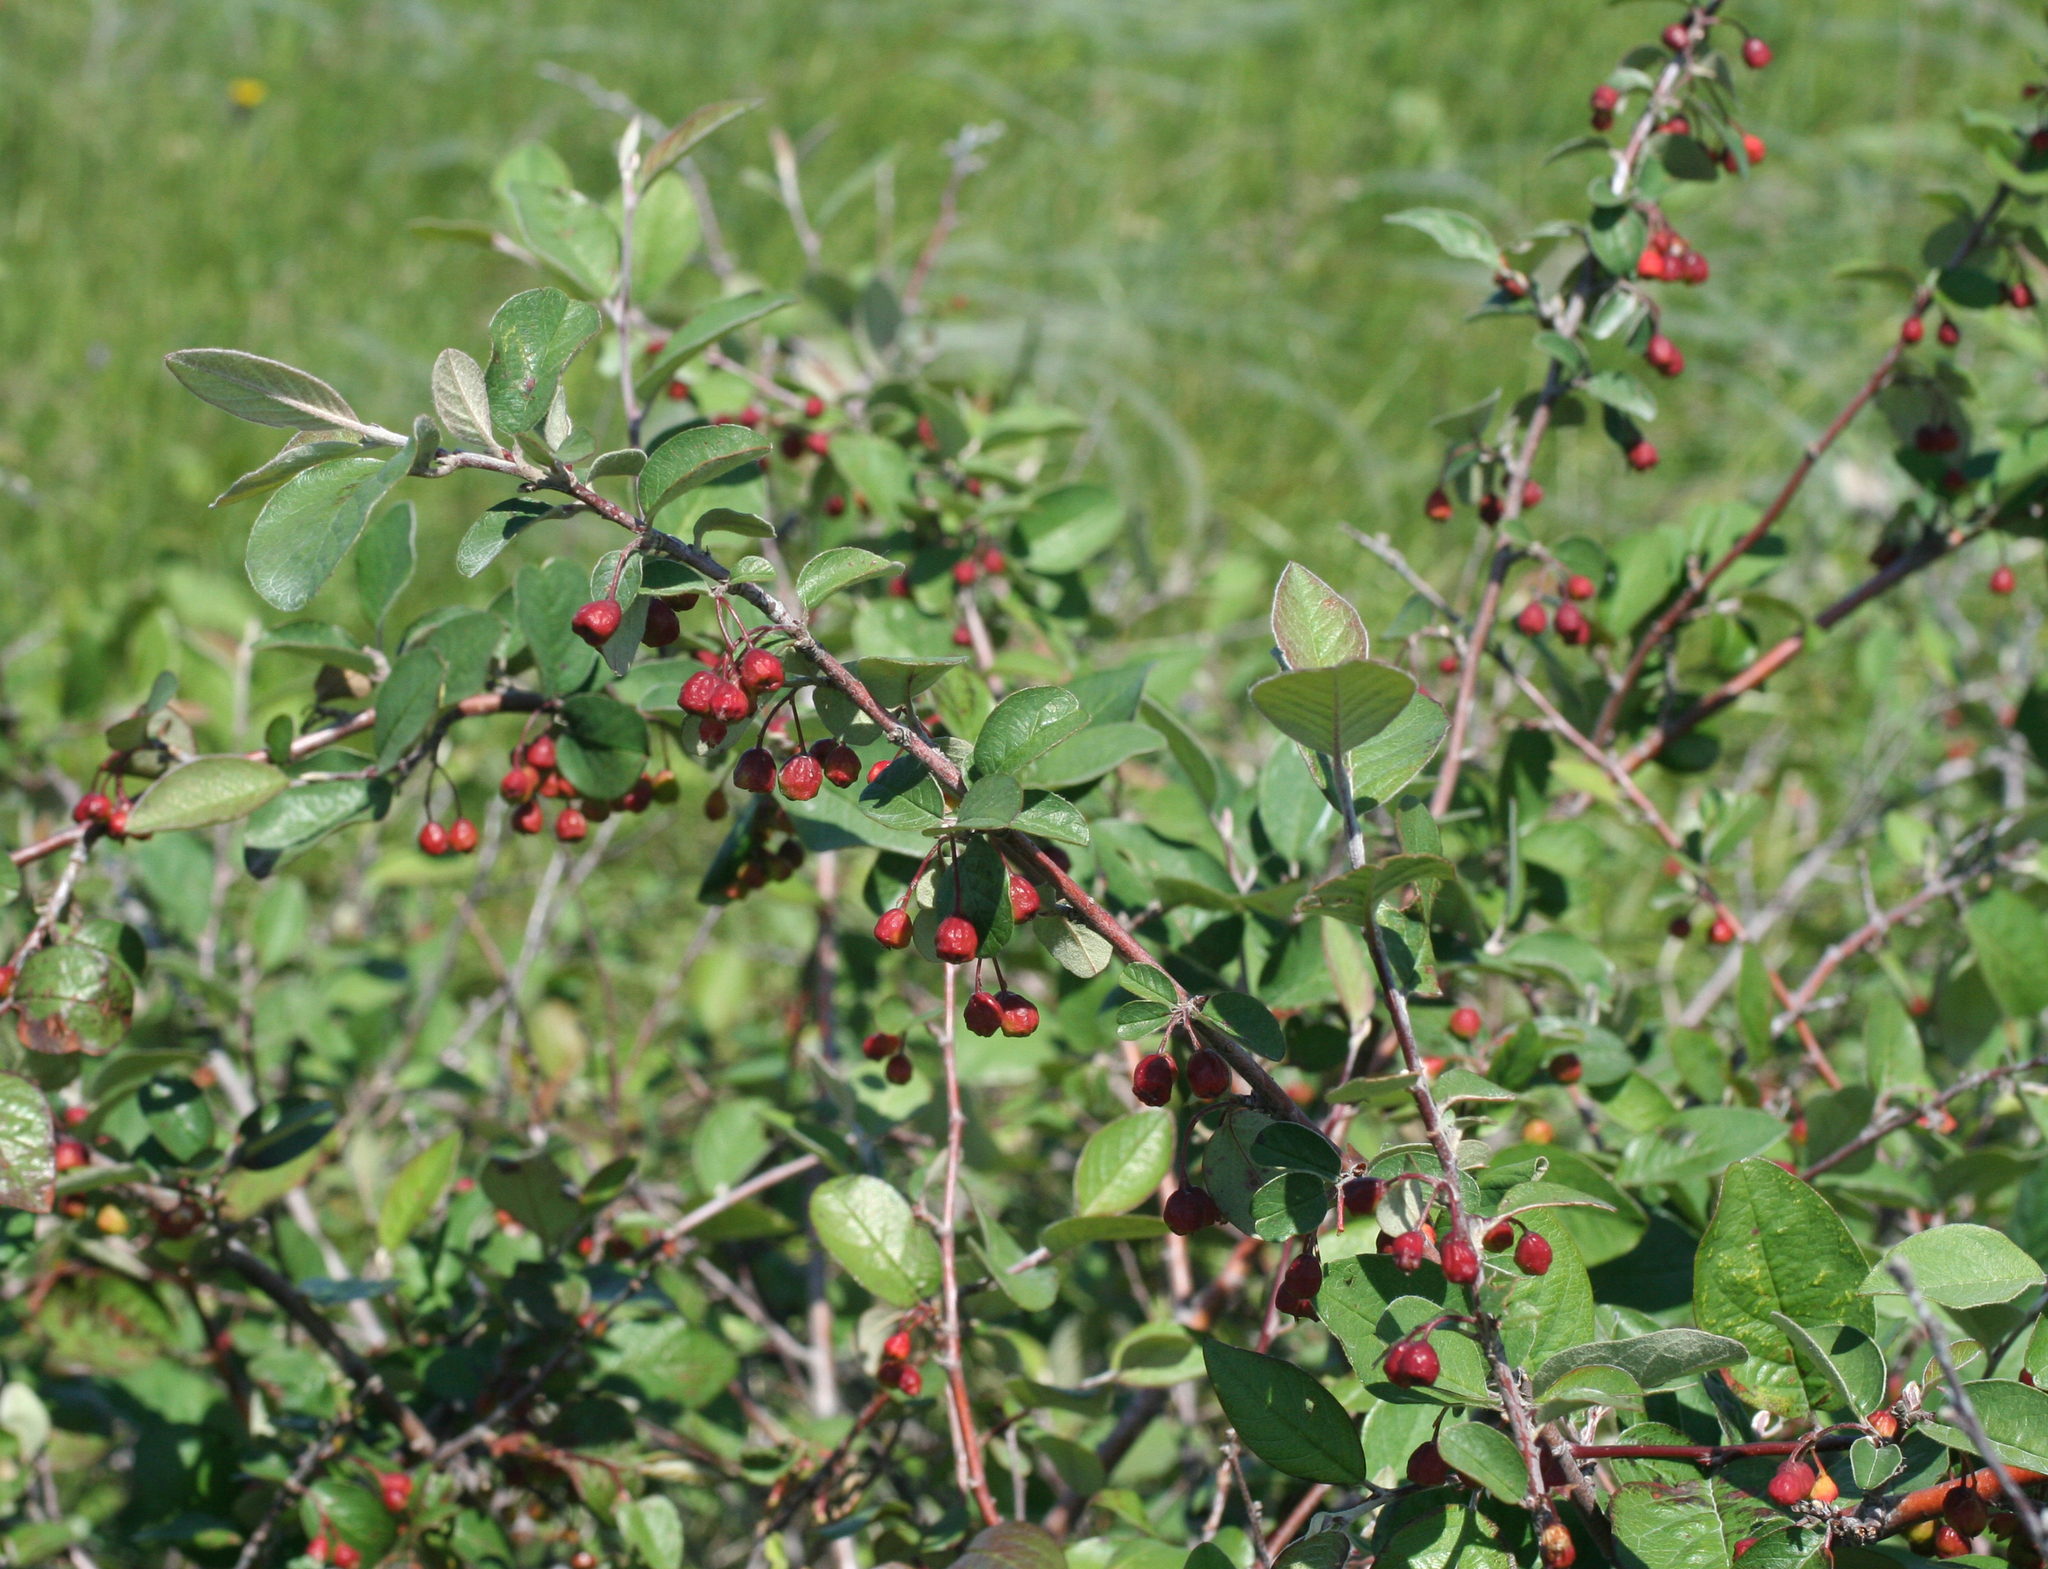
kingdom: Plantae
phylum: Tracheophyta
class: Magnoliopsida
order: Rosales
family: Rosaceae
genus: Cotoneaster
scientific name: Cotoneaster melanocarpus
